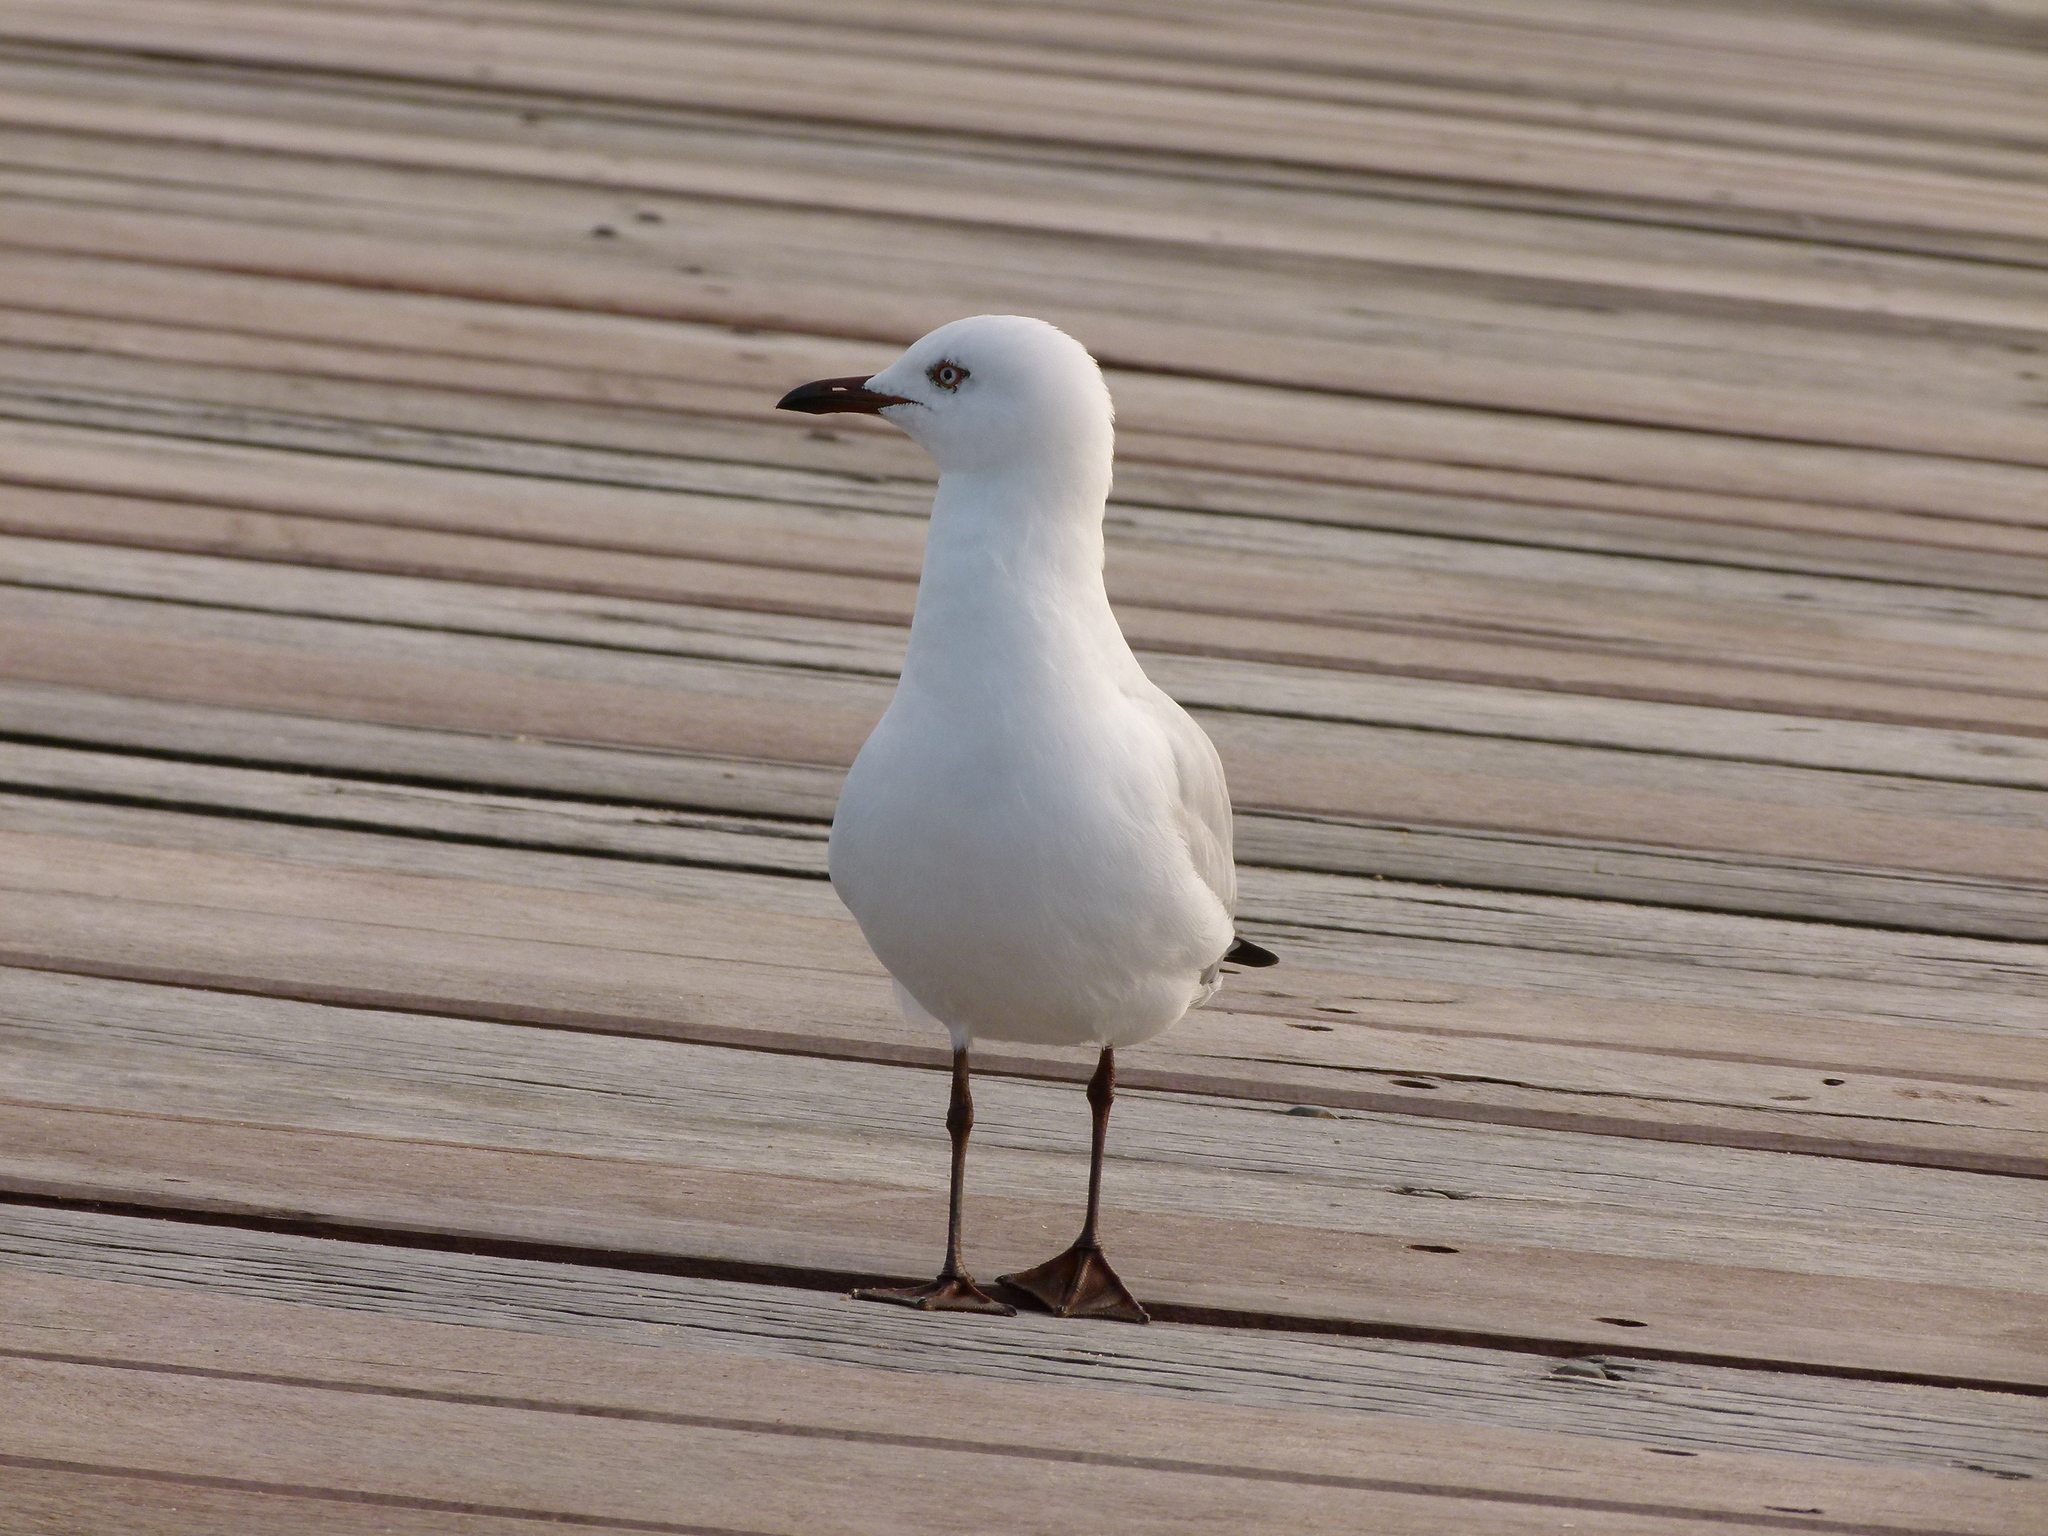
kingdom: Animalia
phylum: Chordata
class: Aves
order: Charadriiformes
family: Laridae
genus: Chroicocephalus
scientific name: Chroicocephalus novaehollandiae
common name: Silver gull
